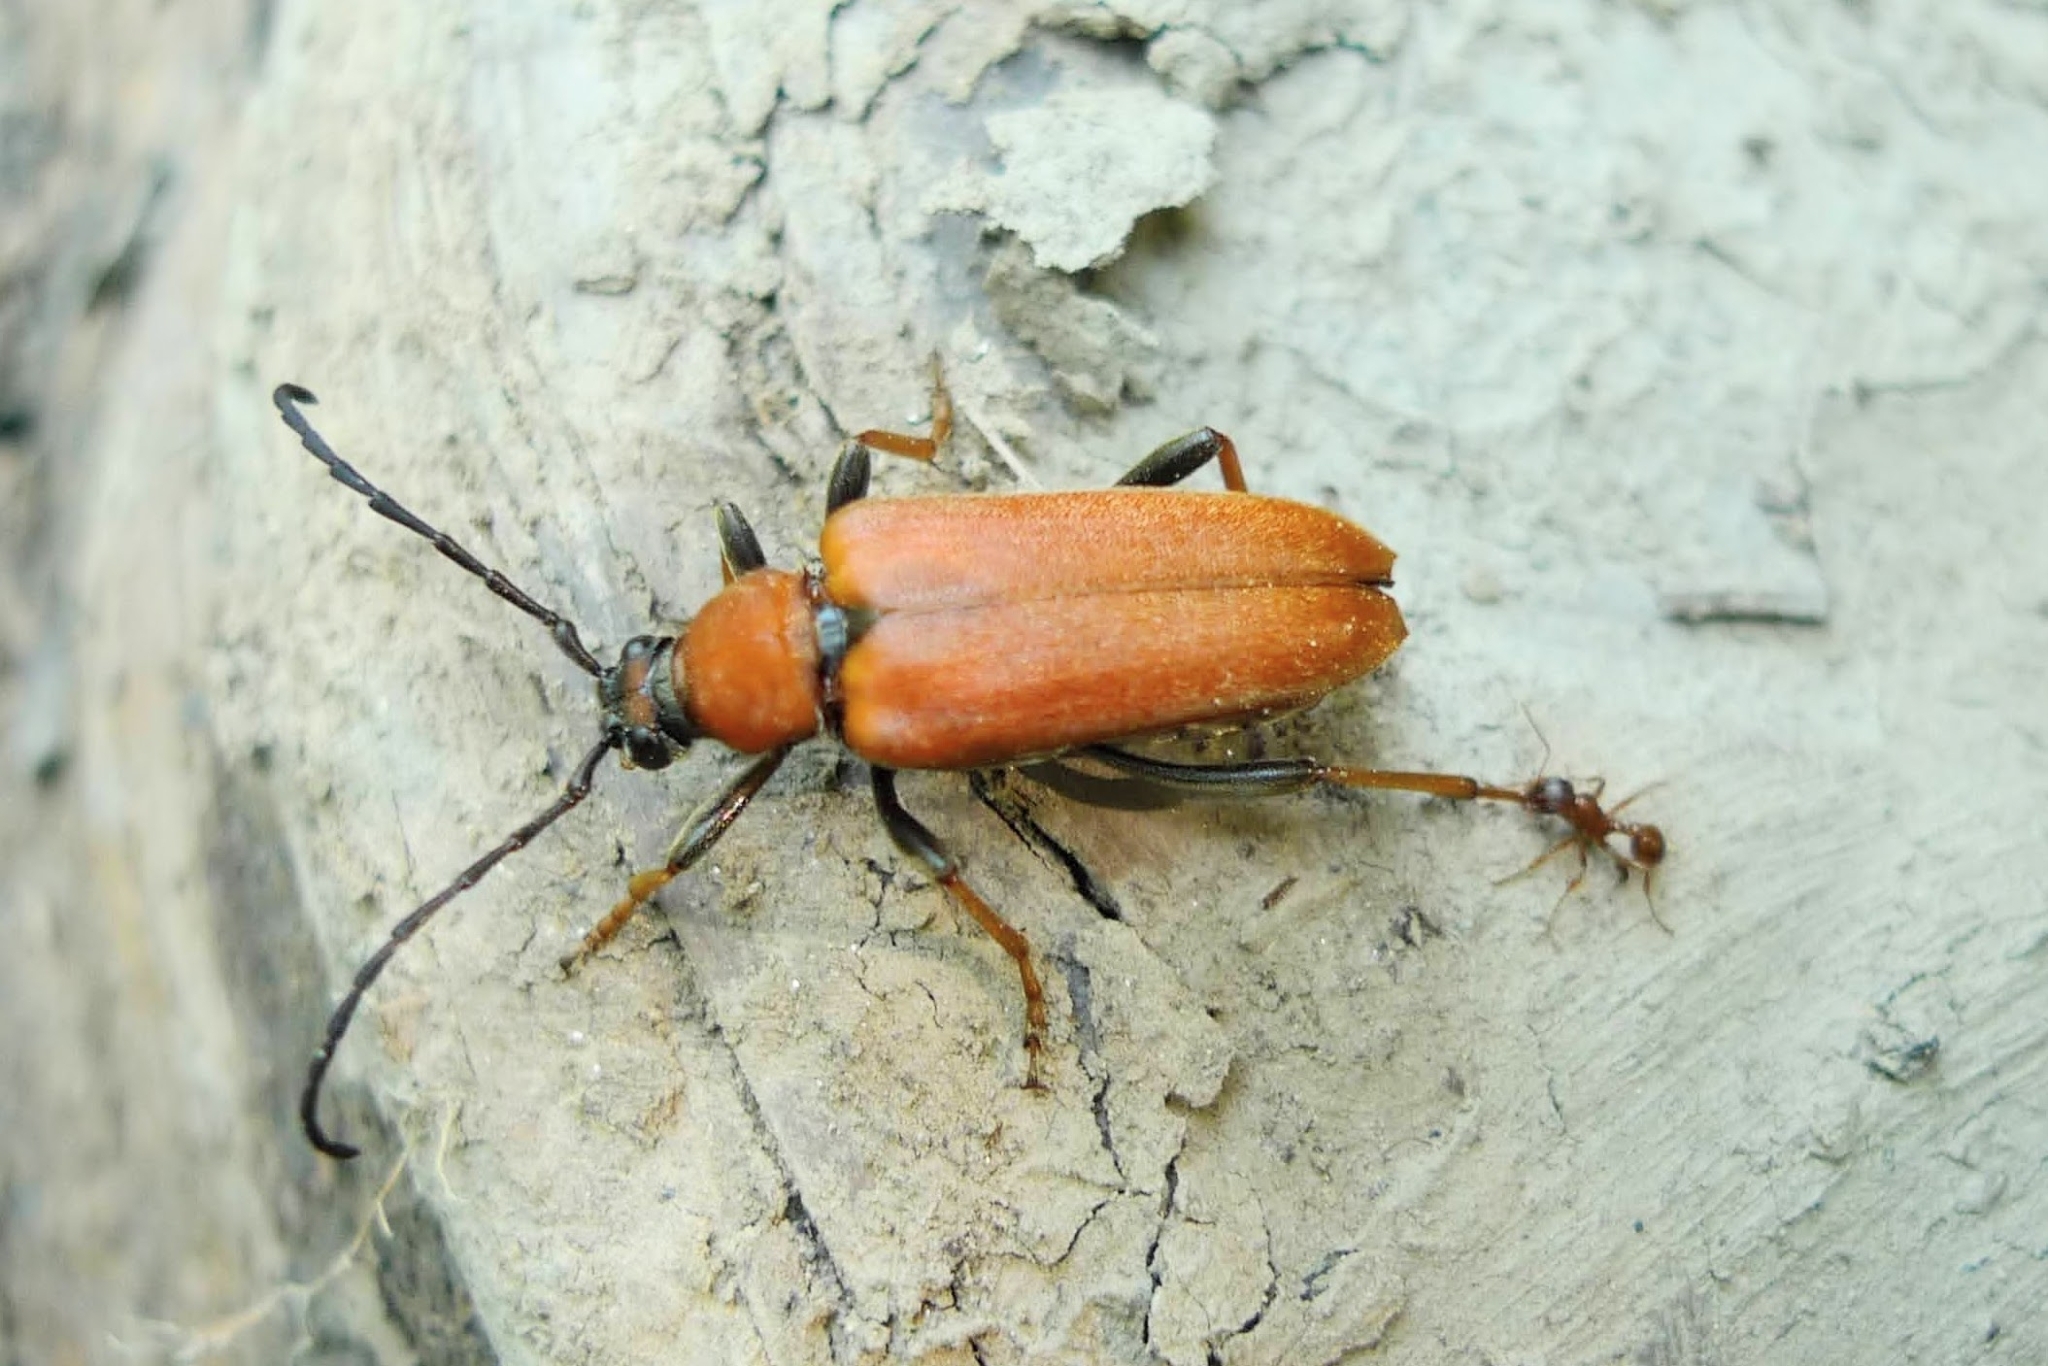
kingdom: Animalia
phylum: Arthropoda
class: Insecta
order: Coleoptera
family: Cerambycidae
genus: Stictoleptura
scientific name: Stictoleptura rubra
